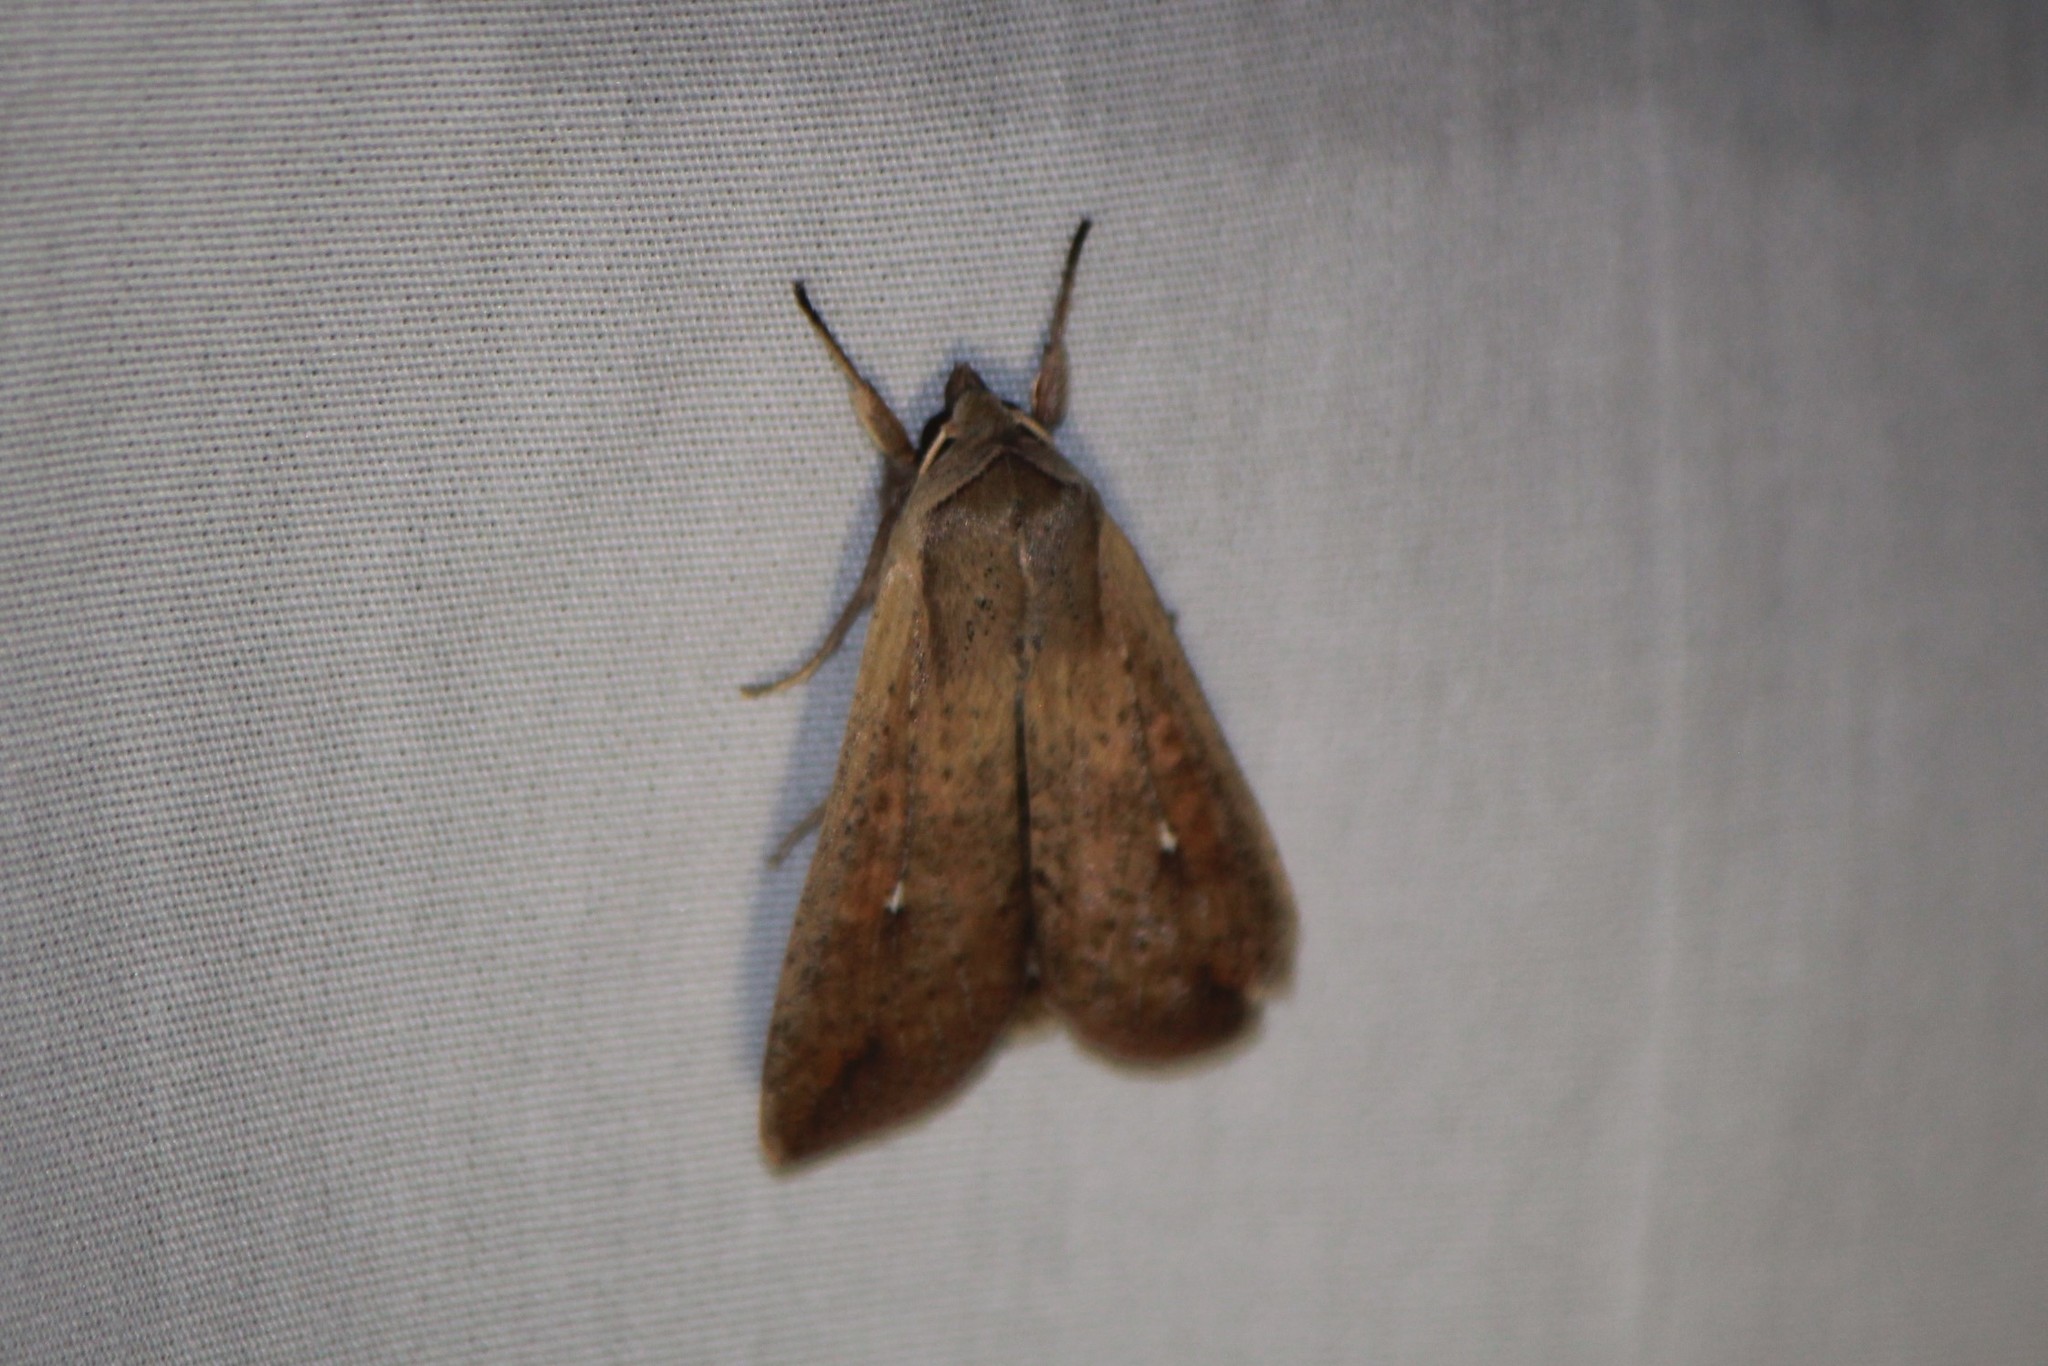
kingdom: Animalia
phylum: Arthropoda
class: Insecta
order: Lepidoptera
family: Noctuidae
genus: Mythimna
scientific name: Mythimna unipuncta
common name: White-speck
